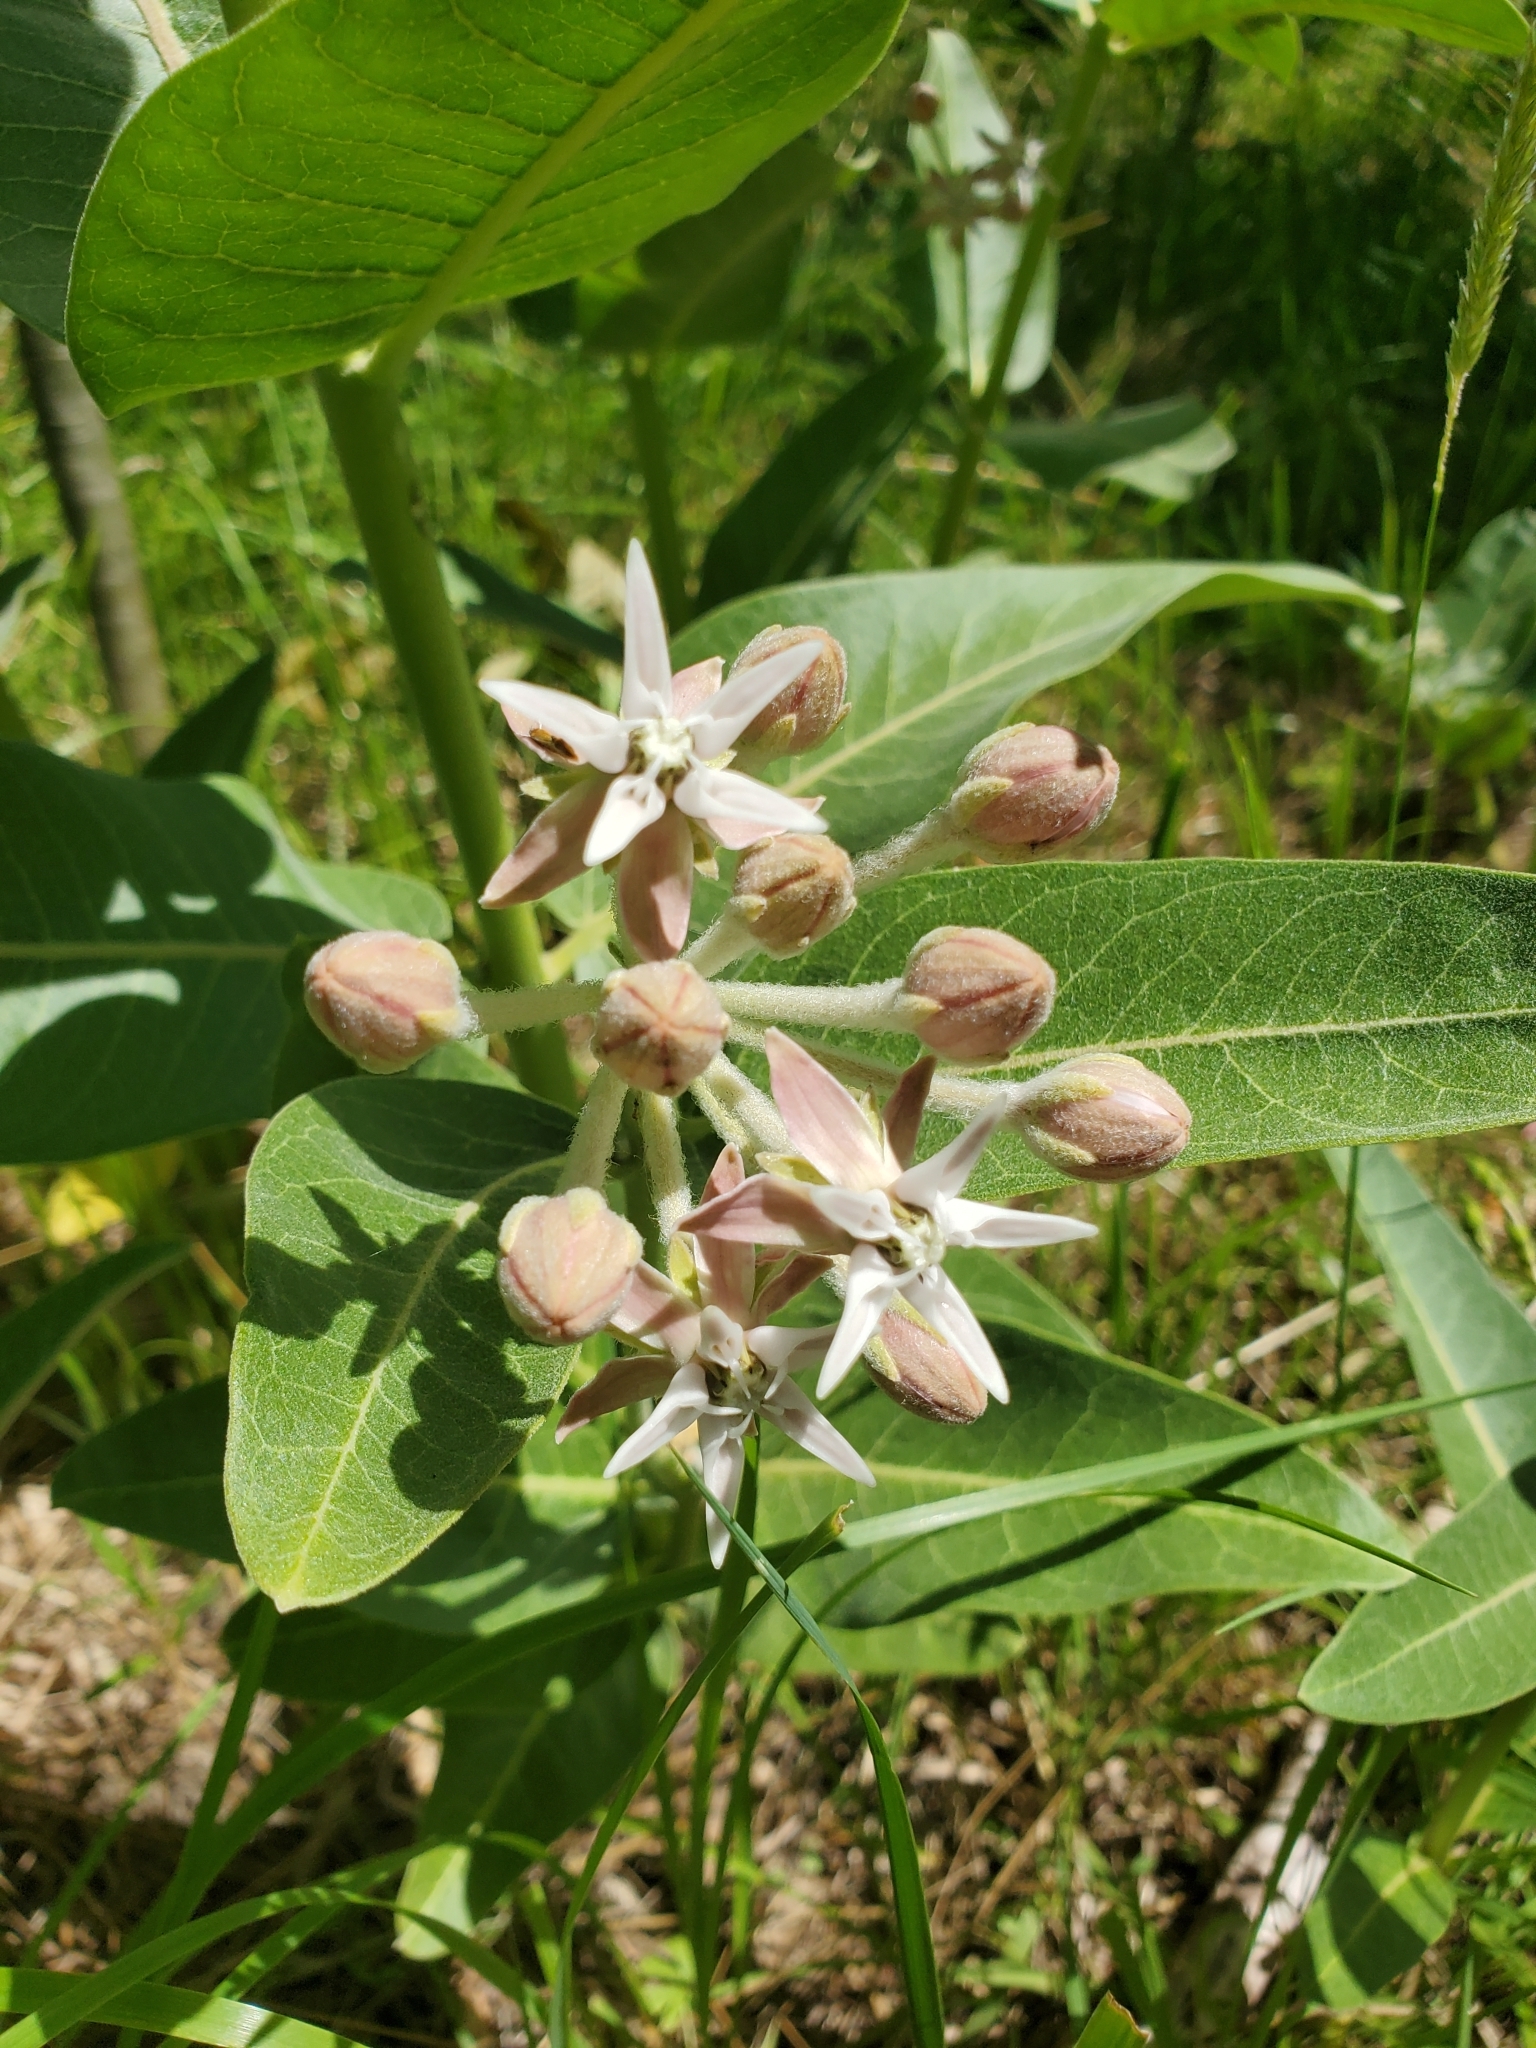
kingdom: Plantae
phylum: Tracheophyta
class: Magnoliopsida
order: Gentianales
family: Apocynaceae
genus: Asclepias
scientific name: Asclepias speciosa
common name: Showy milkweed
